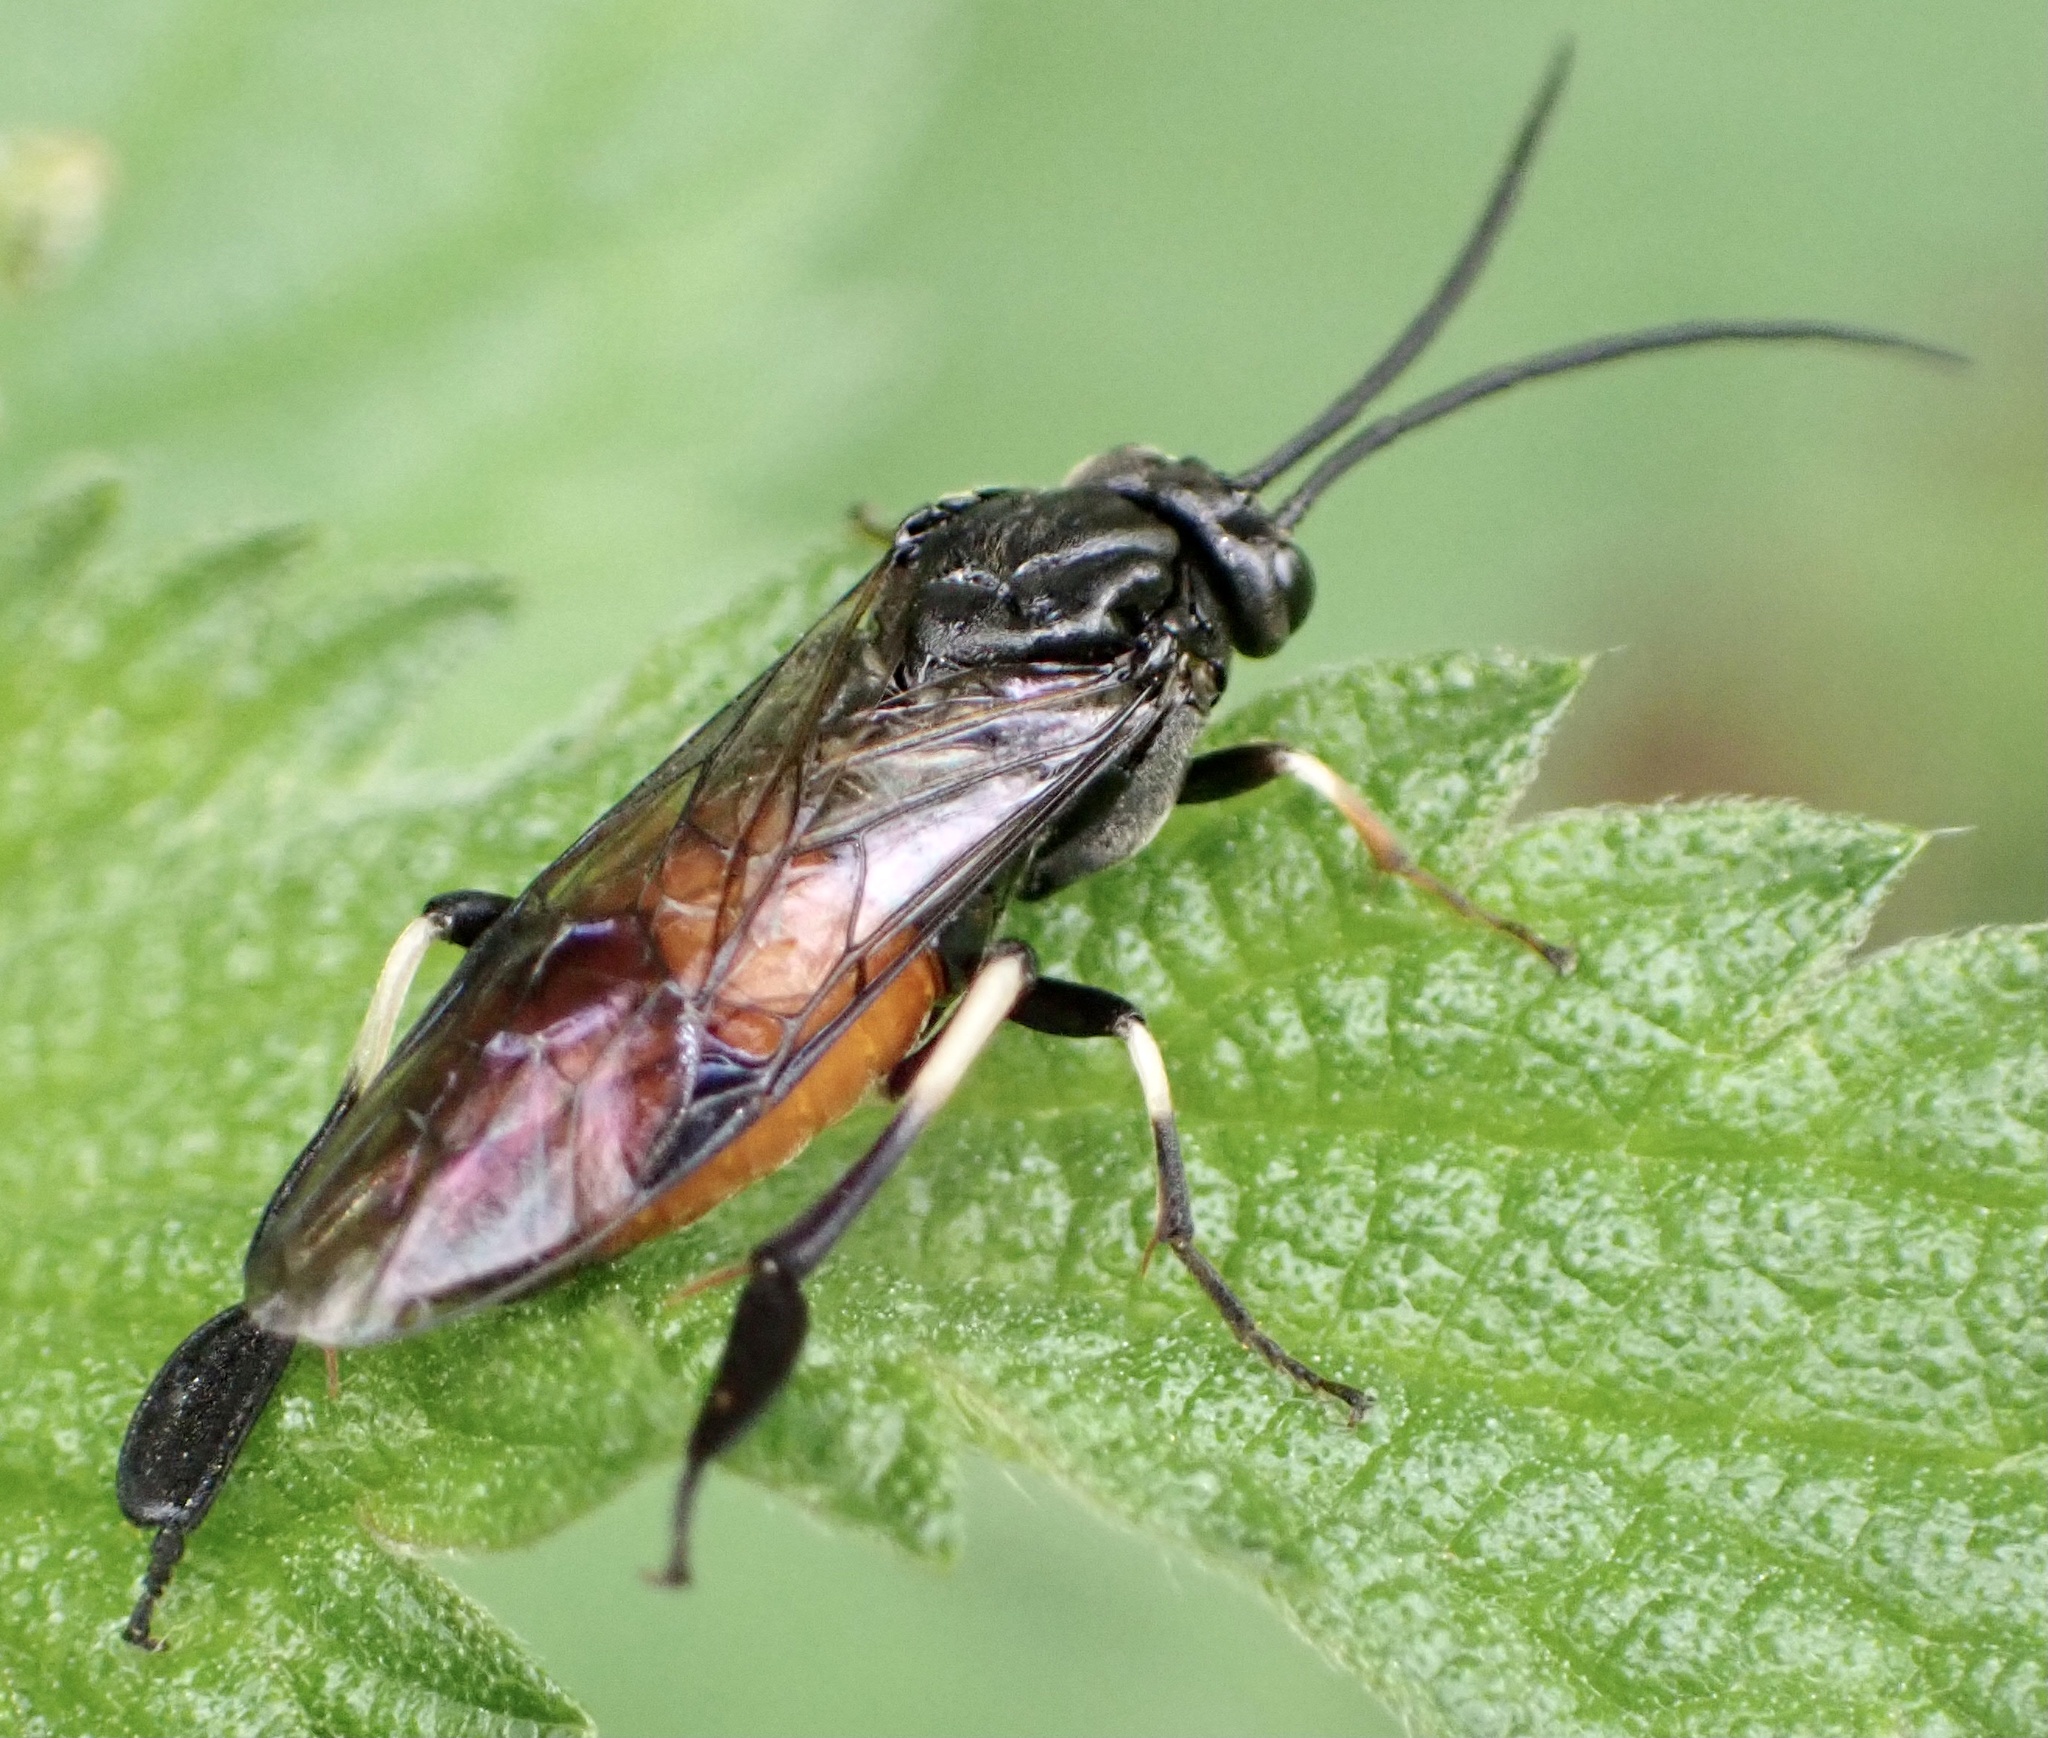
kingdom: Animalia
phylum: Arthropoda
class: Insecta
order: Hymenoptera
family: Tenthredinidae
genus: Craesus
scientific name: Craesus septentrionalis
